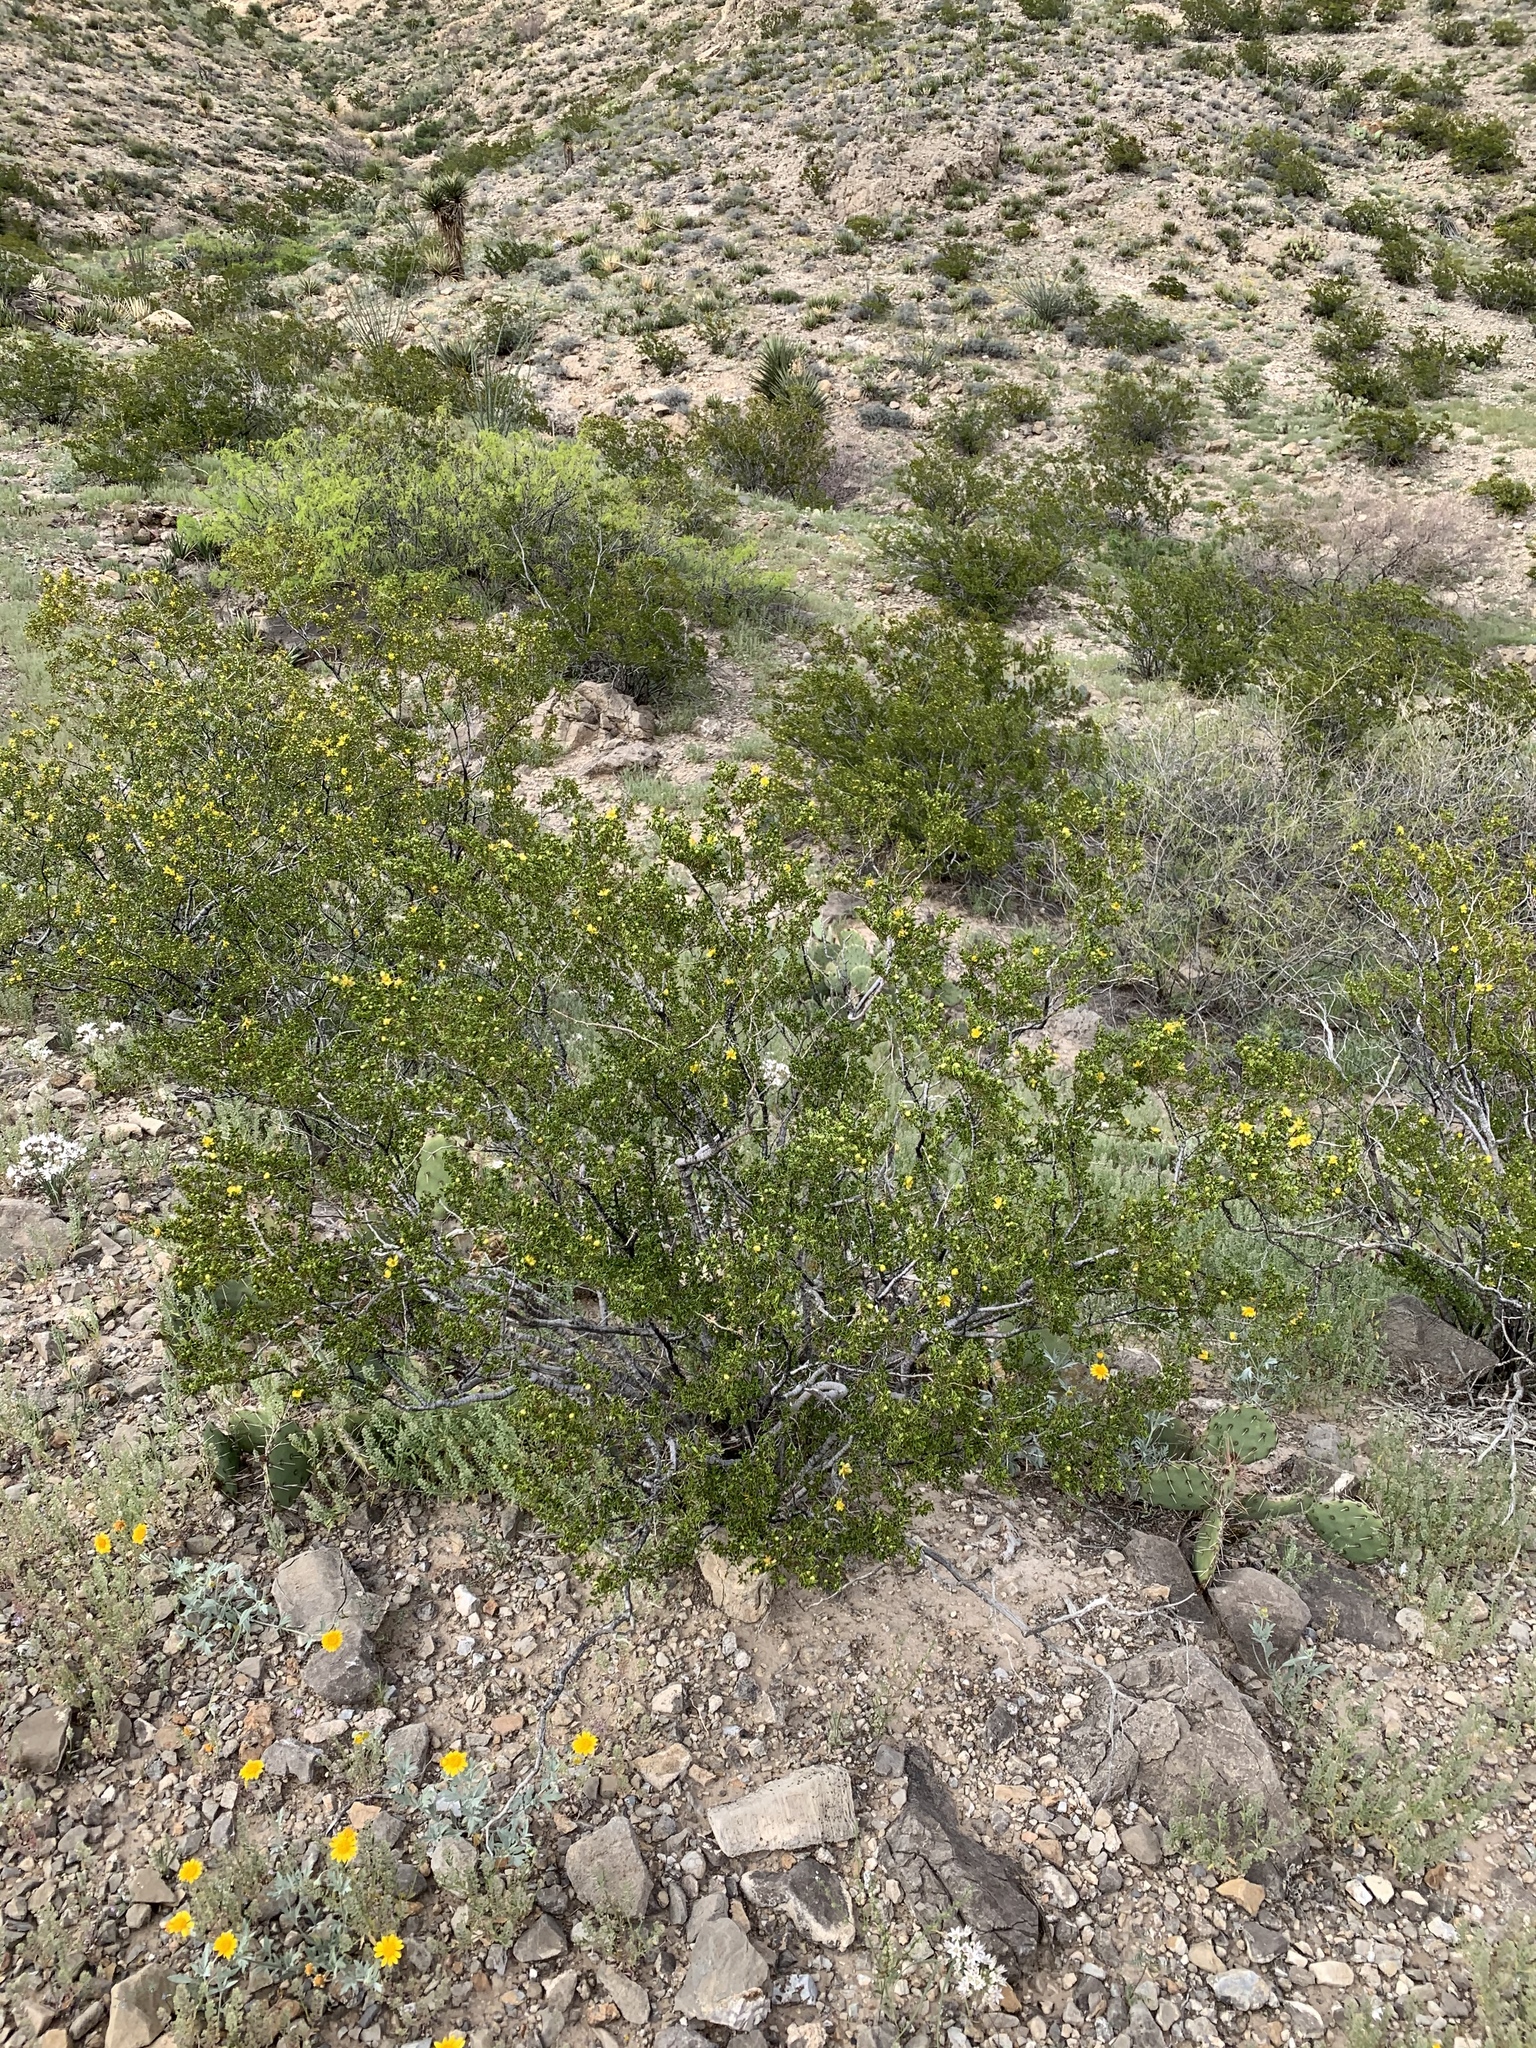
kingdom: Plantae
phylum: Tracheophyta
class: Magnoliopsida
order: Zygophyllales
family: Zygophyllaceae
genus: Larrea
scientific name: Larrea tridentata
